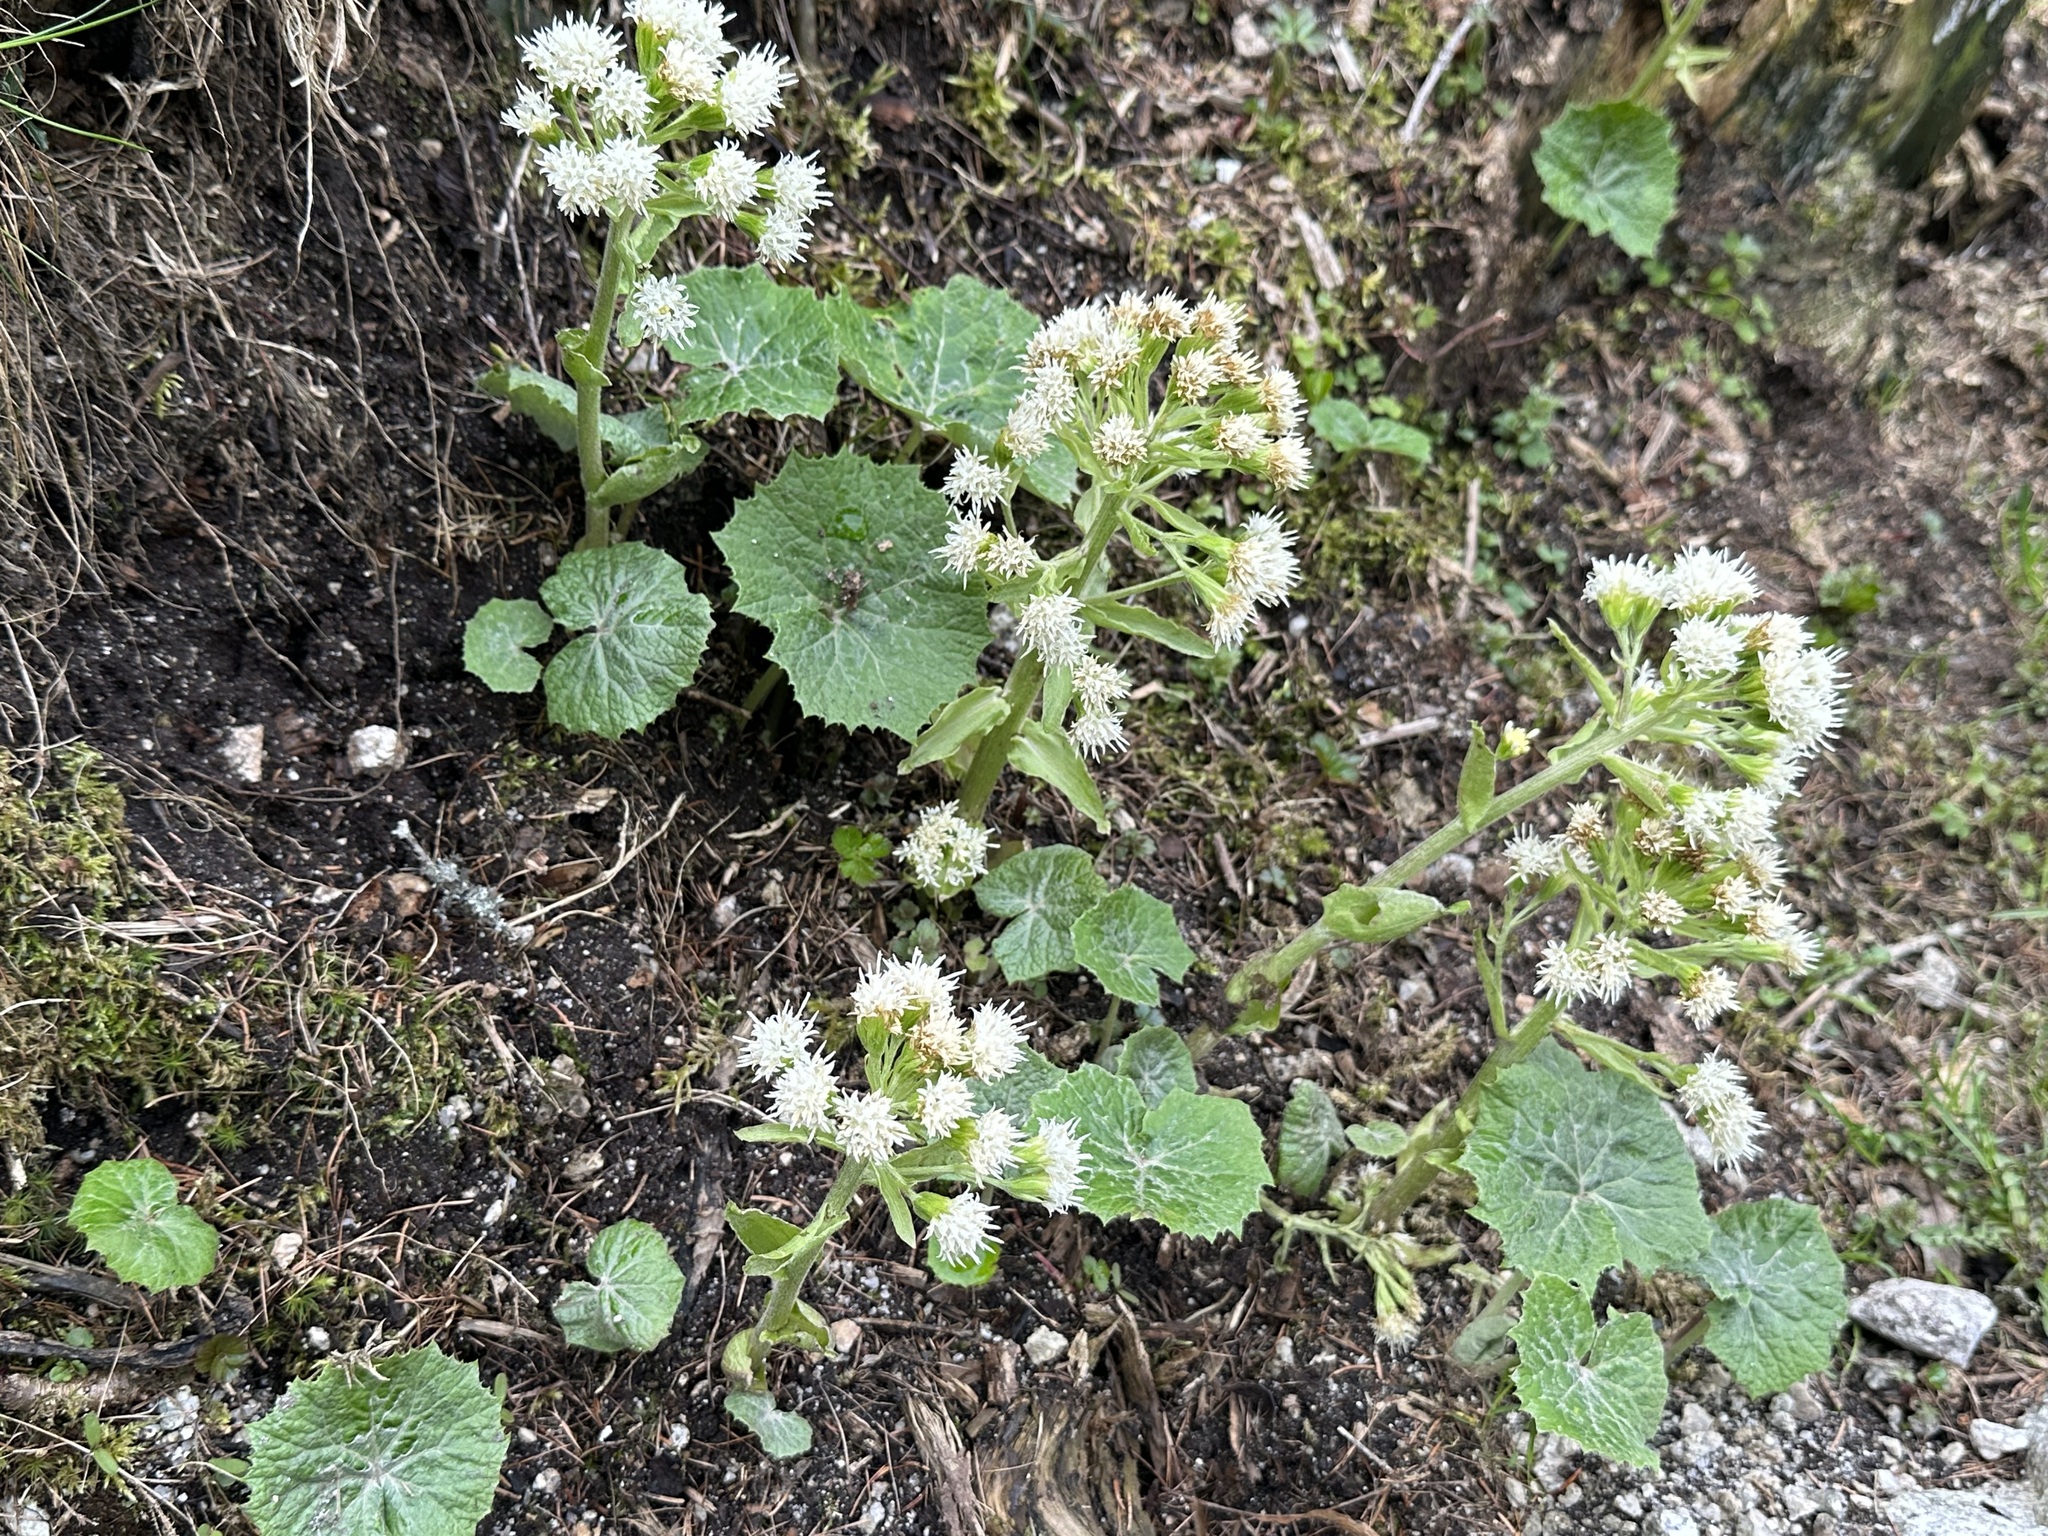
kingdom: Plantae
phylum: Tracheophyta
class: Magnoliopsida
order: Asterales
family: Asteraceae
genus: Petasites
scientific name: Petasites albus
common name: White butterbur
